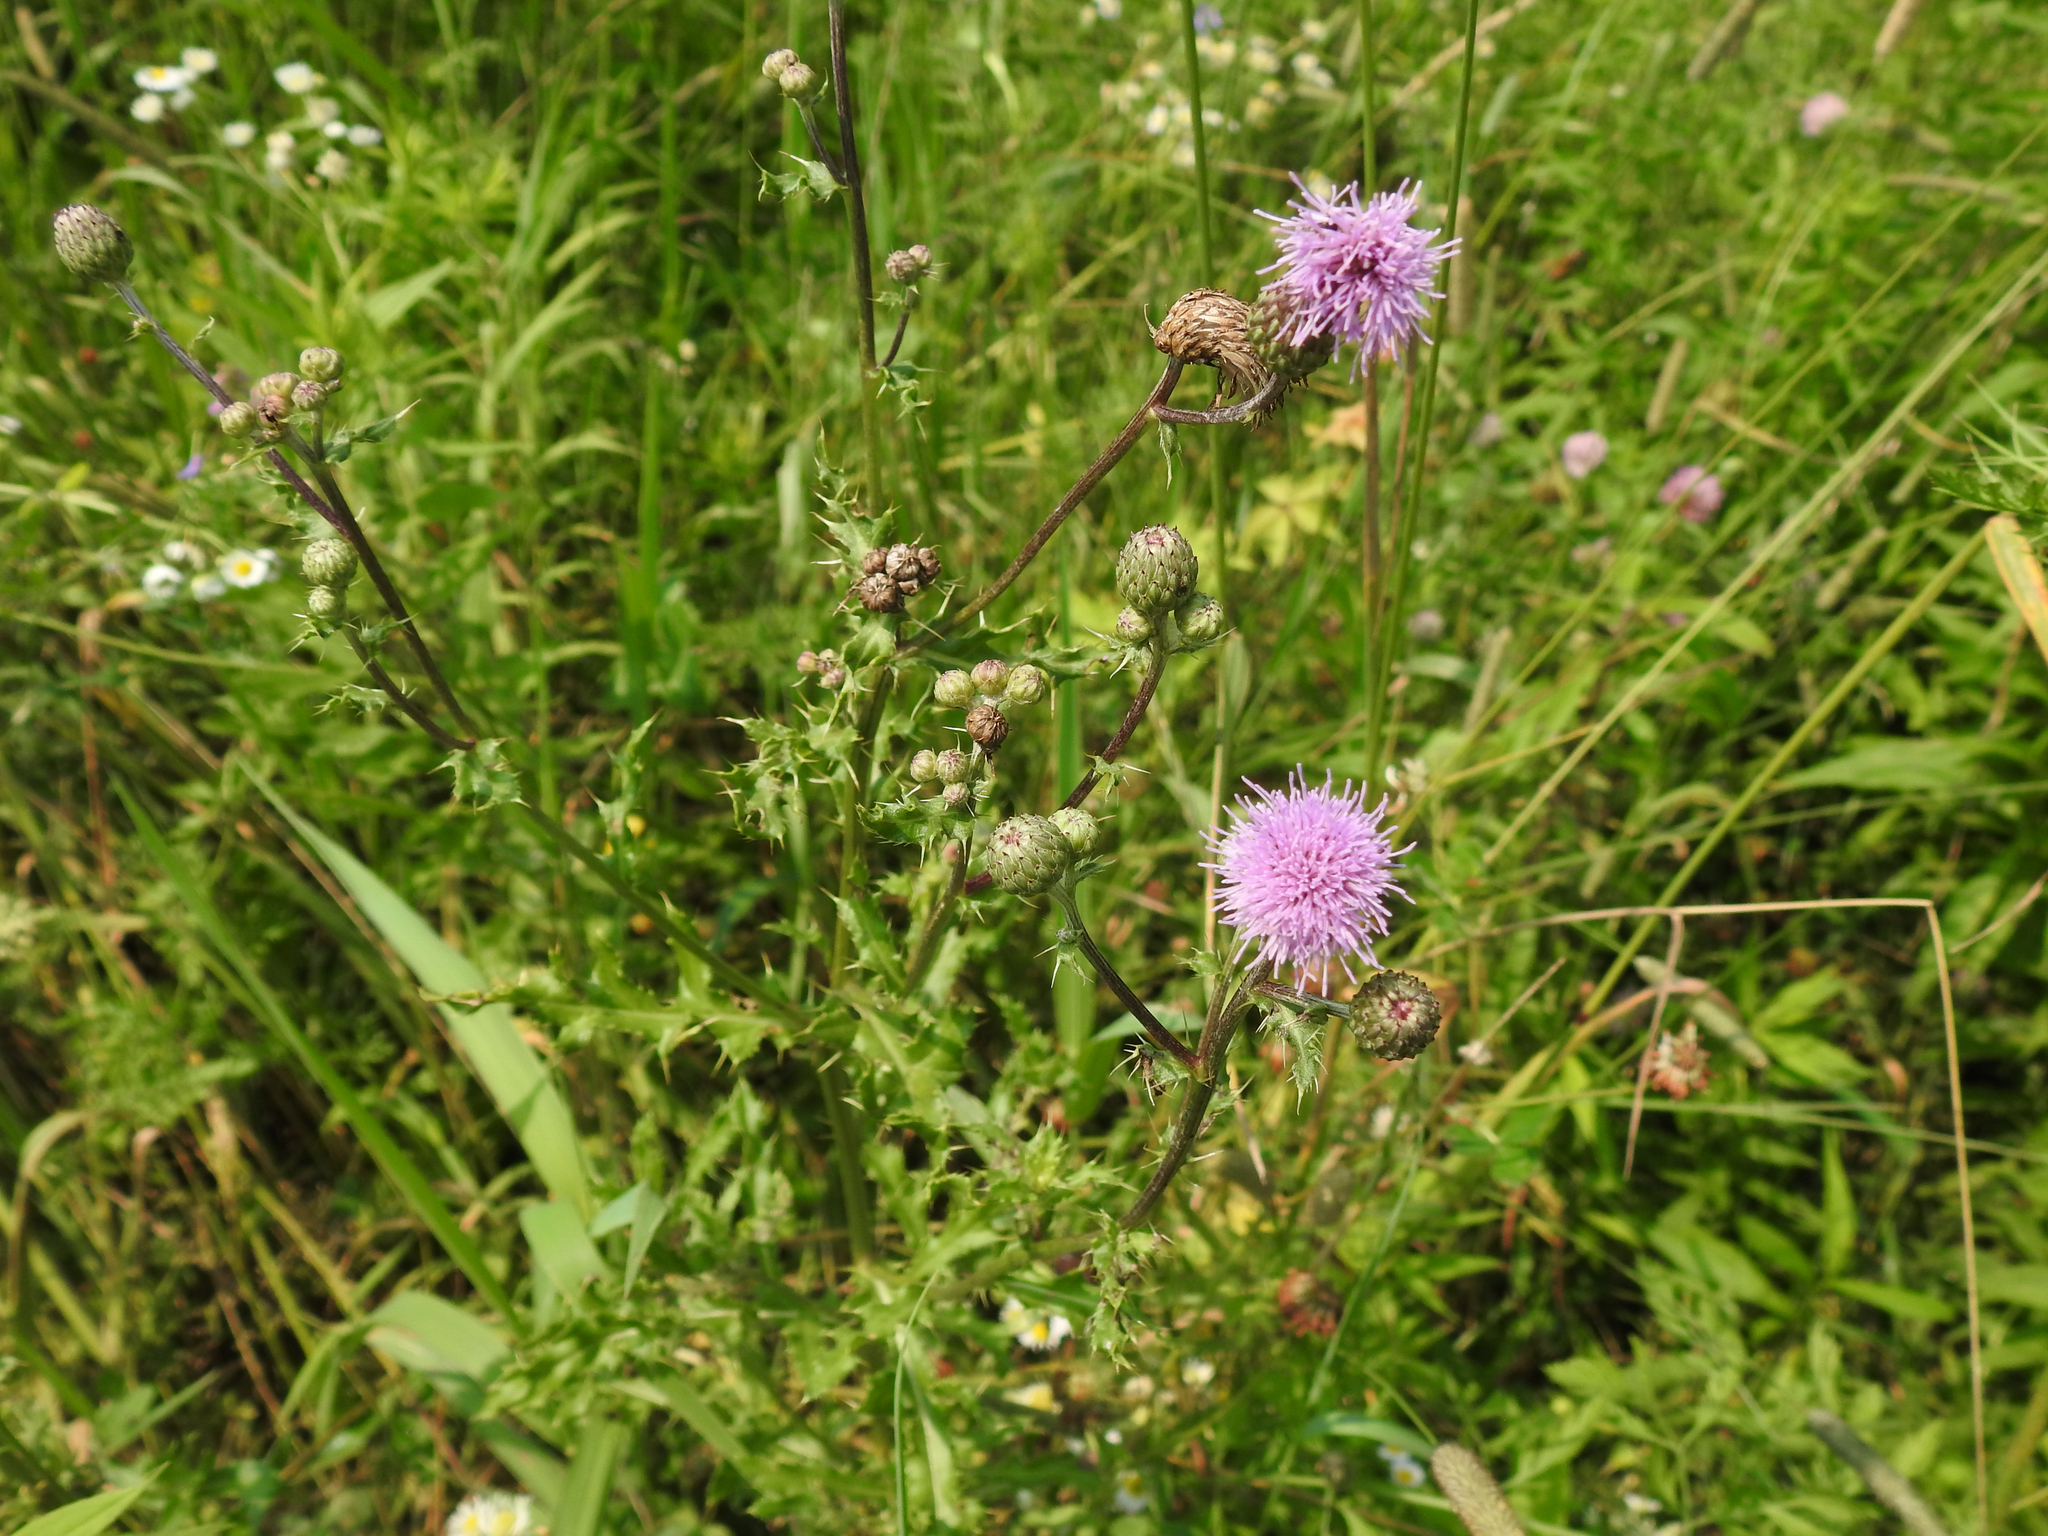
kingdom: Plantae
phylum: Tracheophyta
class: Magnoliopsida
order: Asterales
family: Asteraceae
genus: Cirsium
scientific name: Cirsium arvense
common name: Creeping thistle
